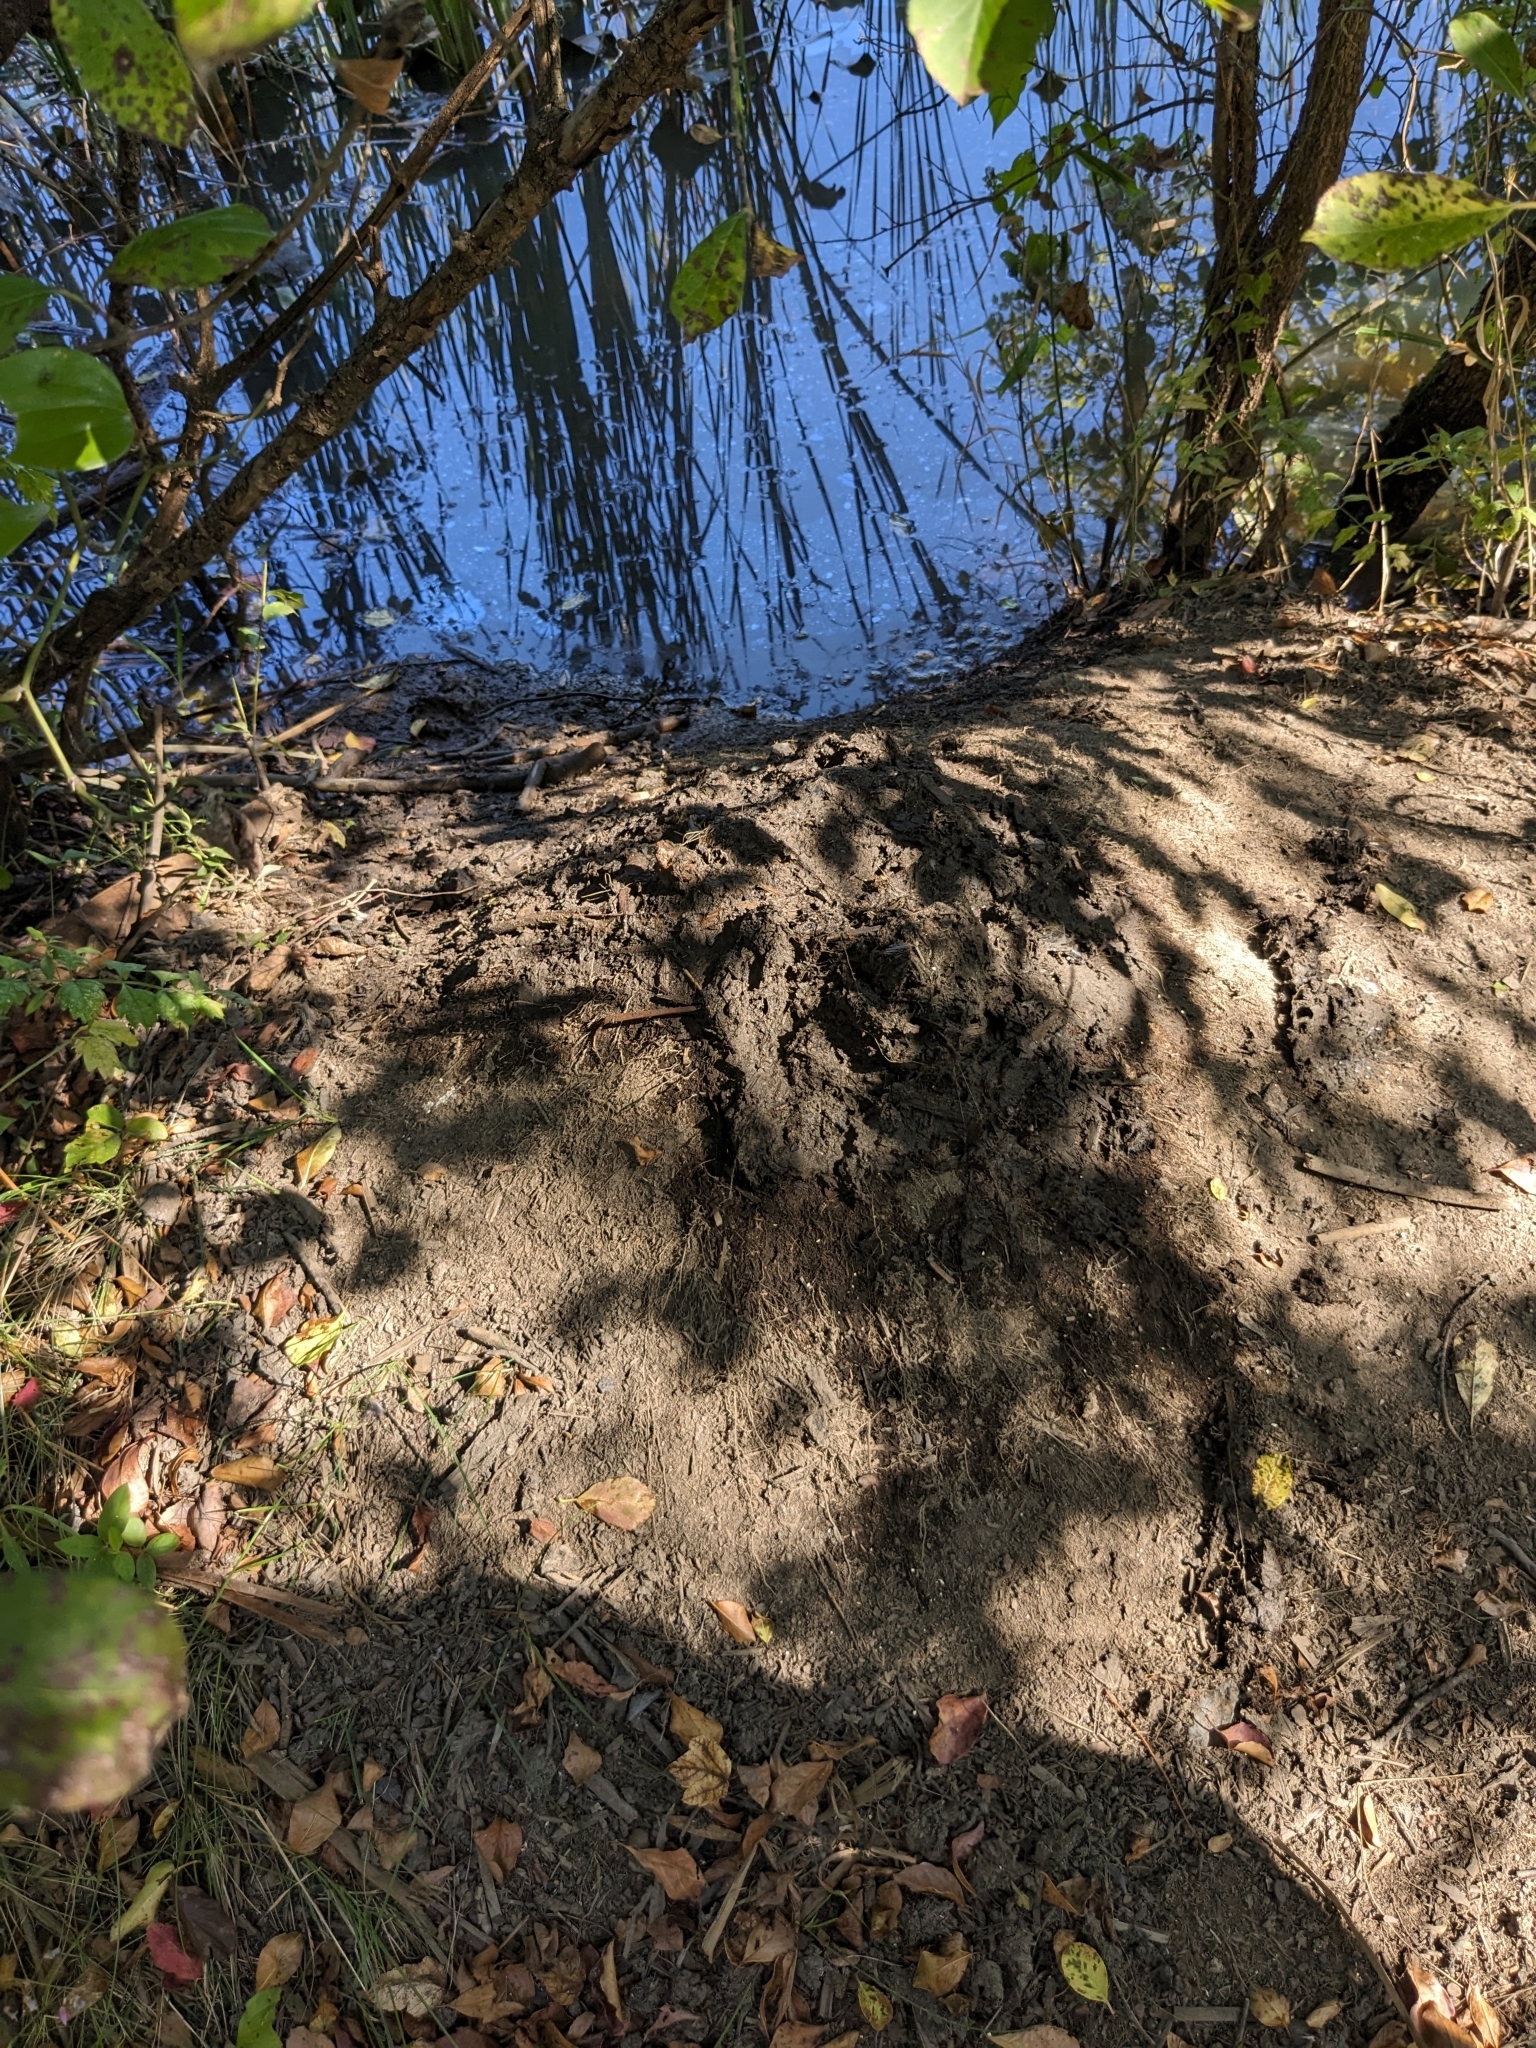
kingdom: Animalia
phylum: Chordata
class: Mammalia
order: Rodentia
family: Castoridae
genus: Castor
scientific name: Castor canadensis
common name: American beaver
